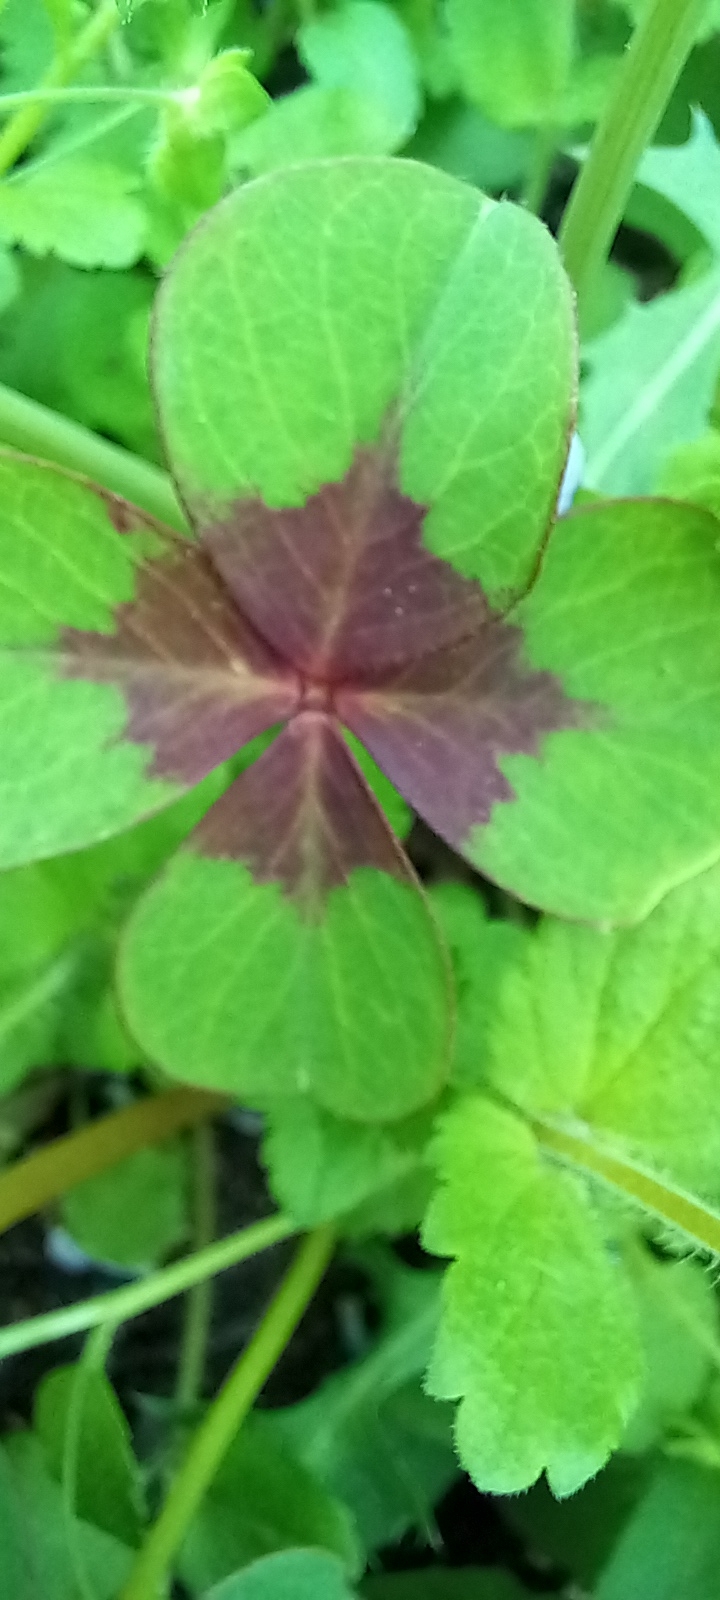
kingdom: Plantae
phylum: Tracheophyta
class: Magnoliopsida
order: Oxalidales
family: Oxalidaceae
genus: Oxalis
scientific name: Oxalis tetraphylla
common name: Four-leaved pink-sorrel
